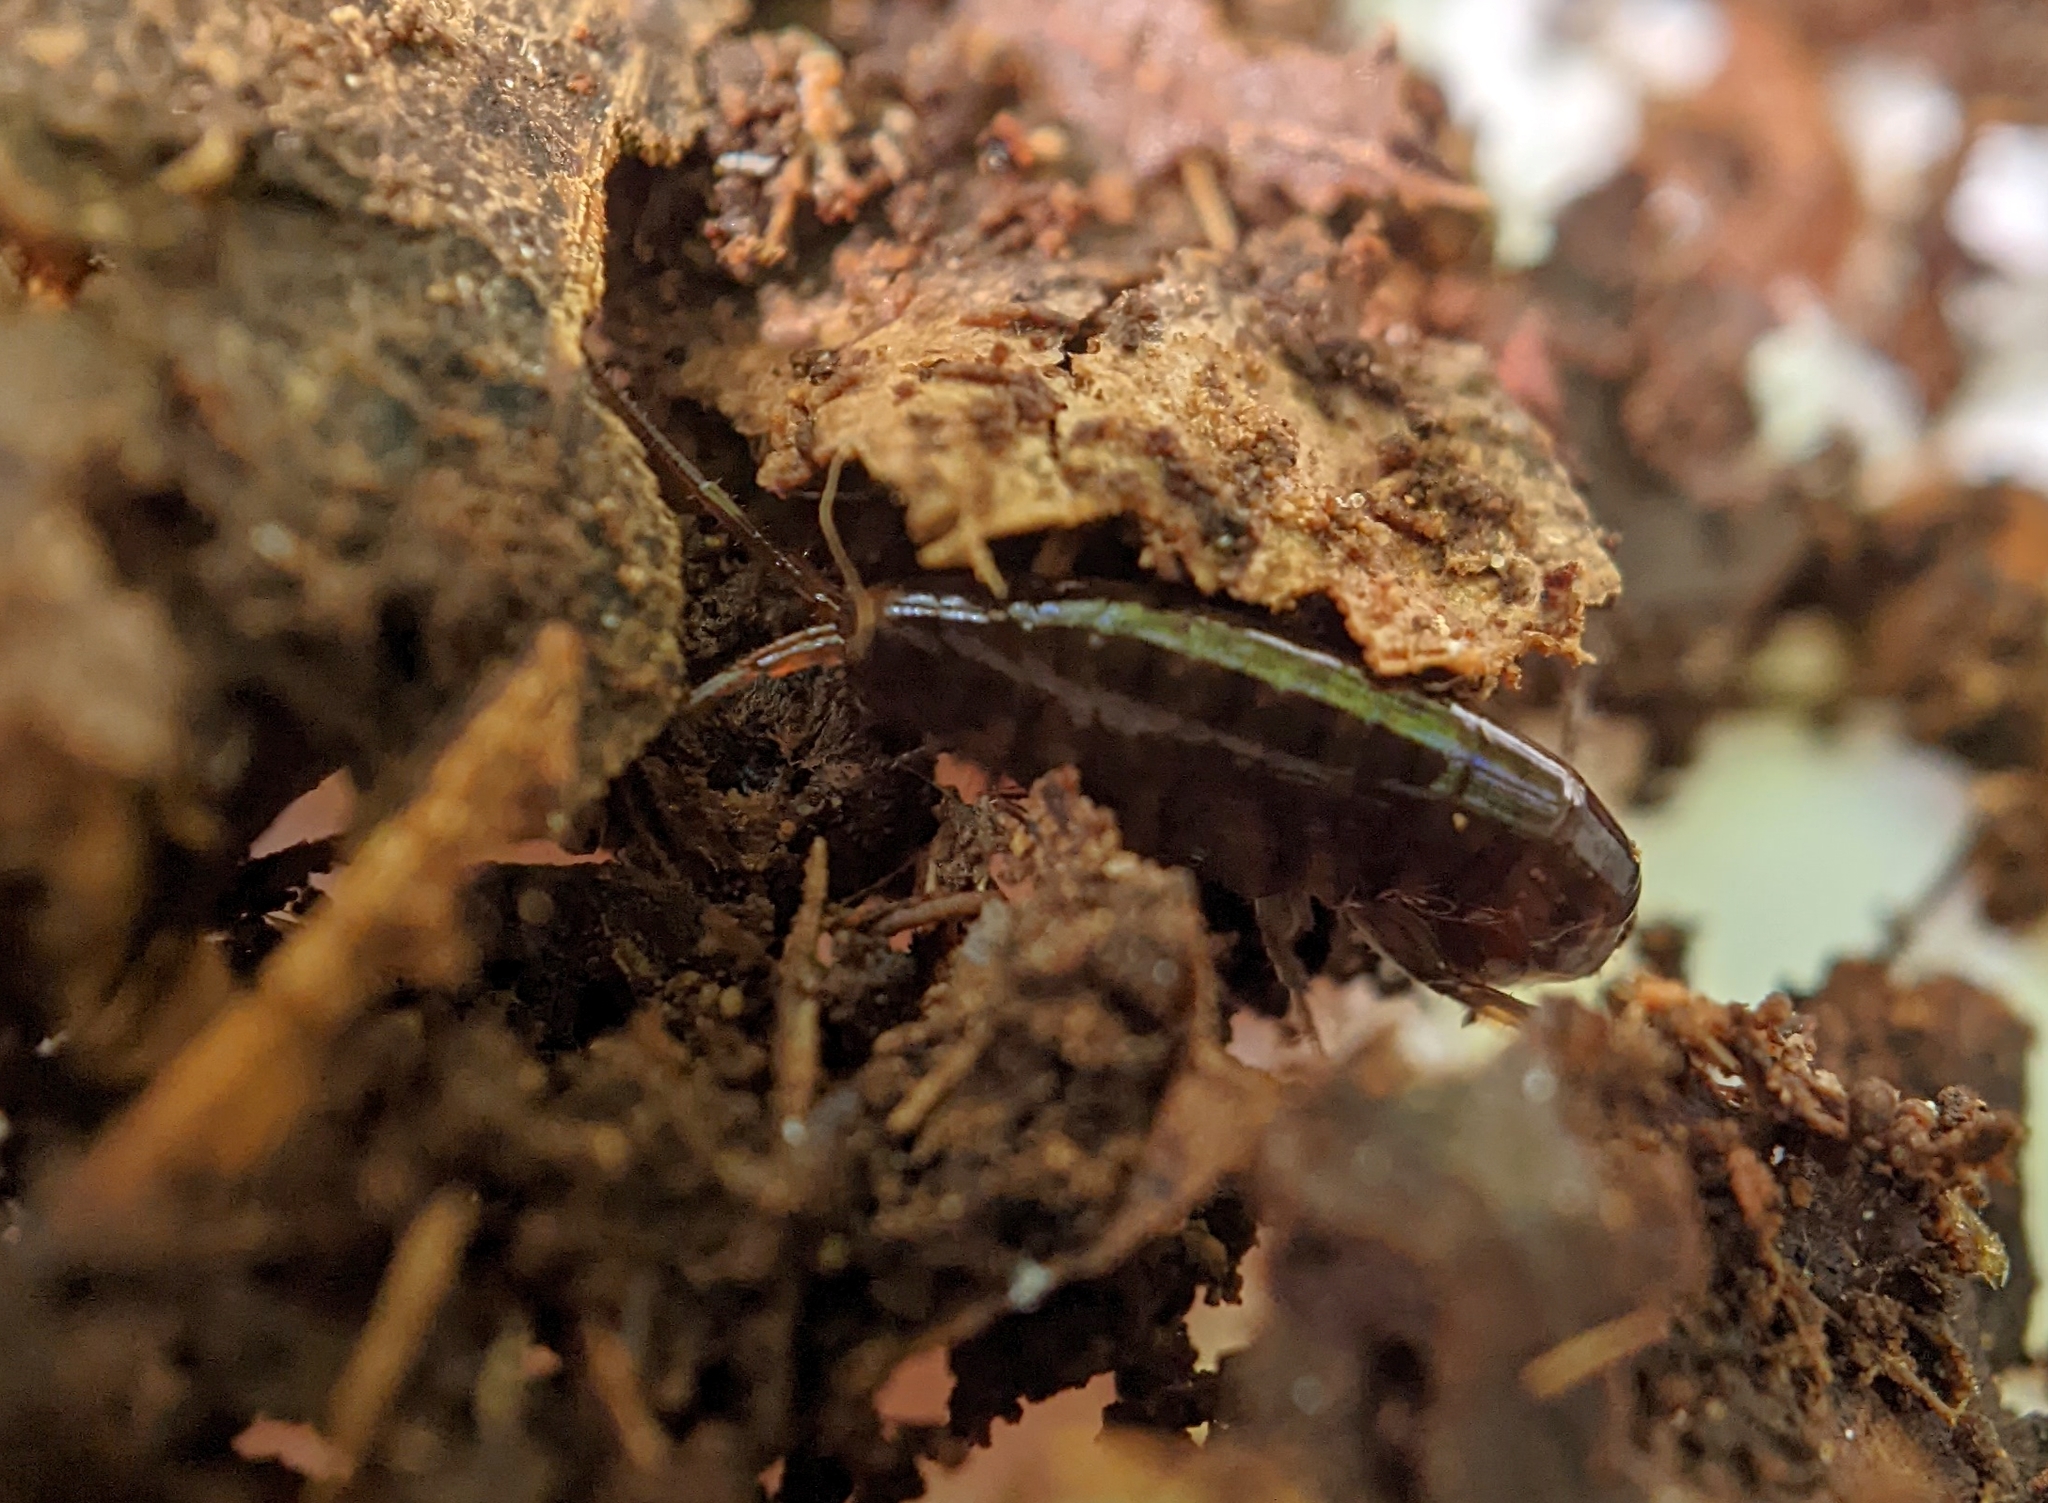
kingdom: Animalia
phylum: Arthropoda
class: Malacostraca
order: Amphipoda
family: Arcitalitridae
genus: Arcitalitrus
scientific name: Arcitalitrus dorrieni
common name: Landhopper
